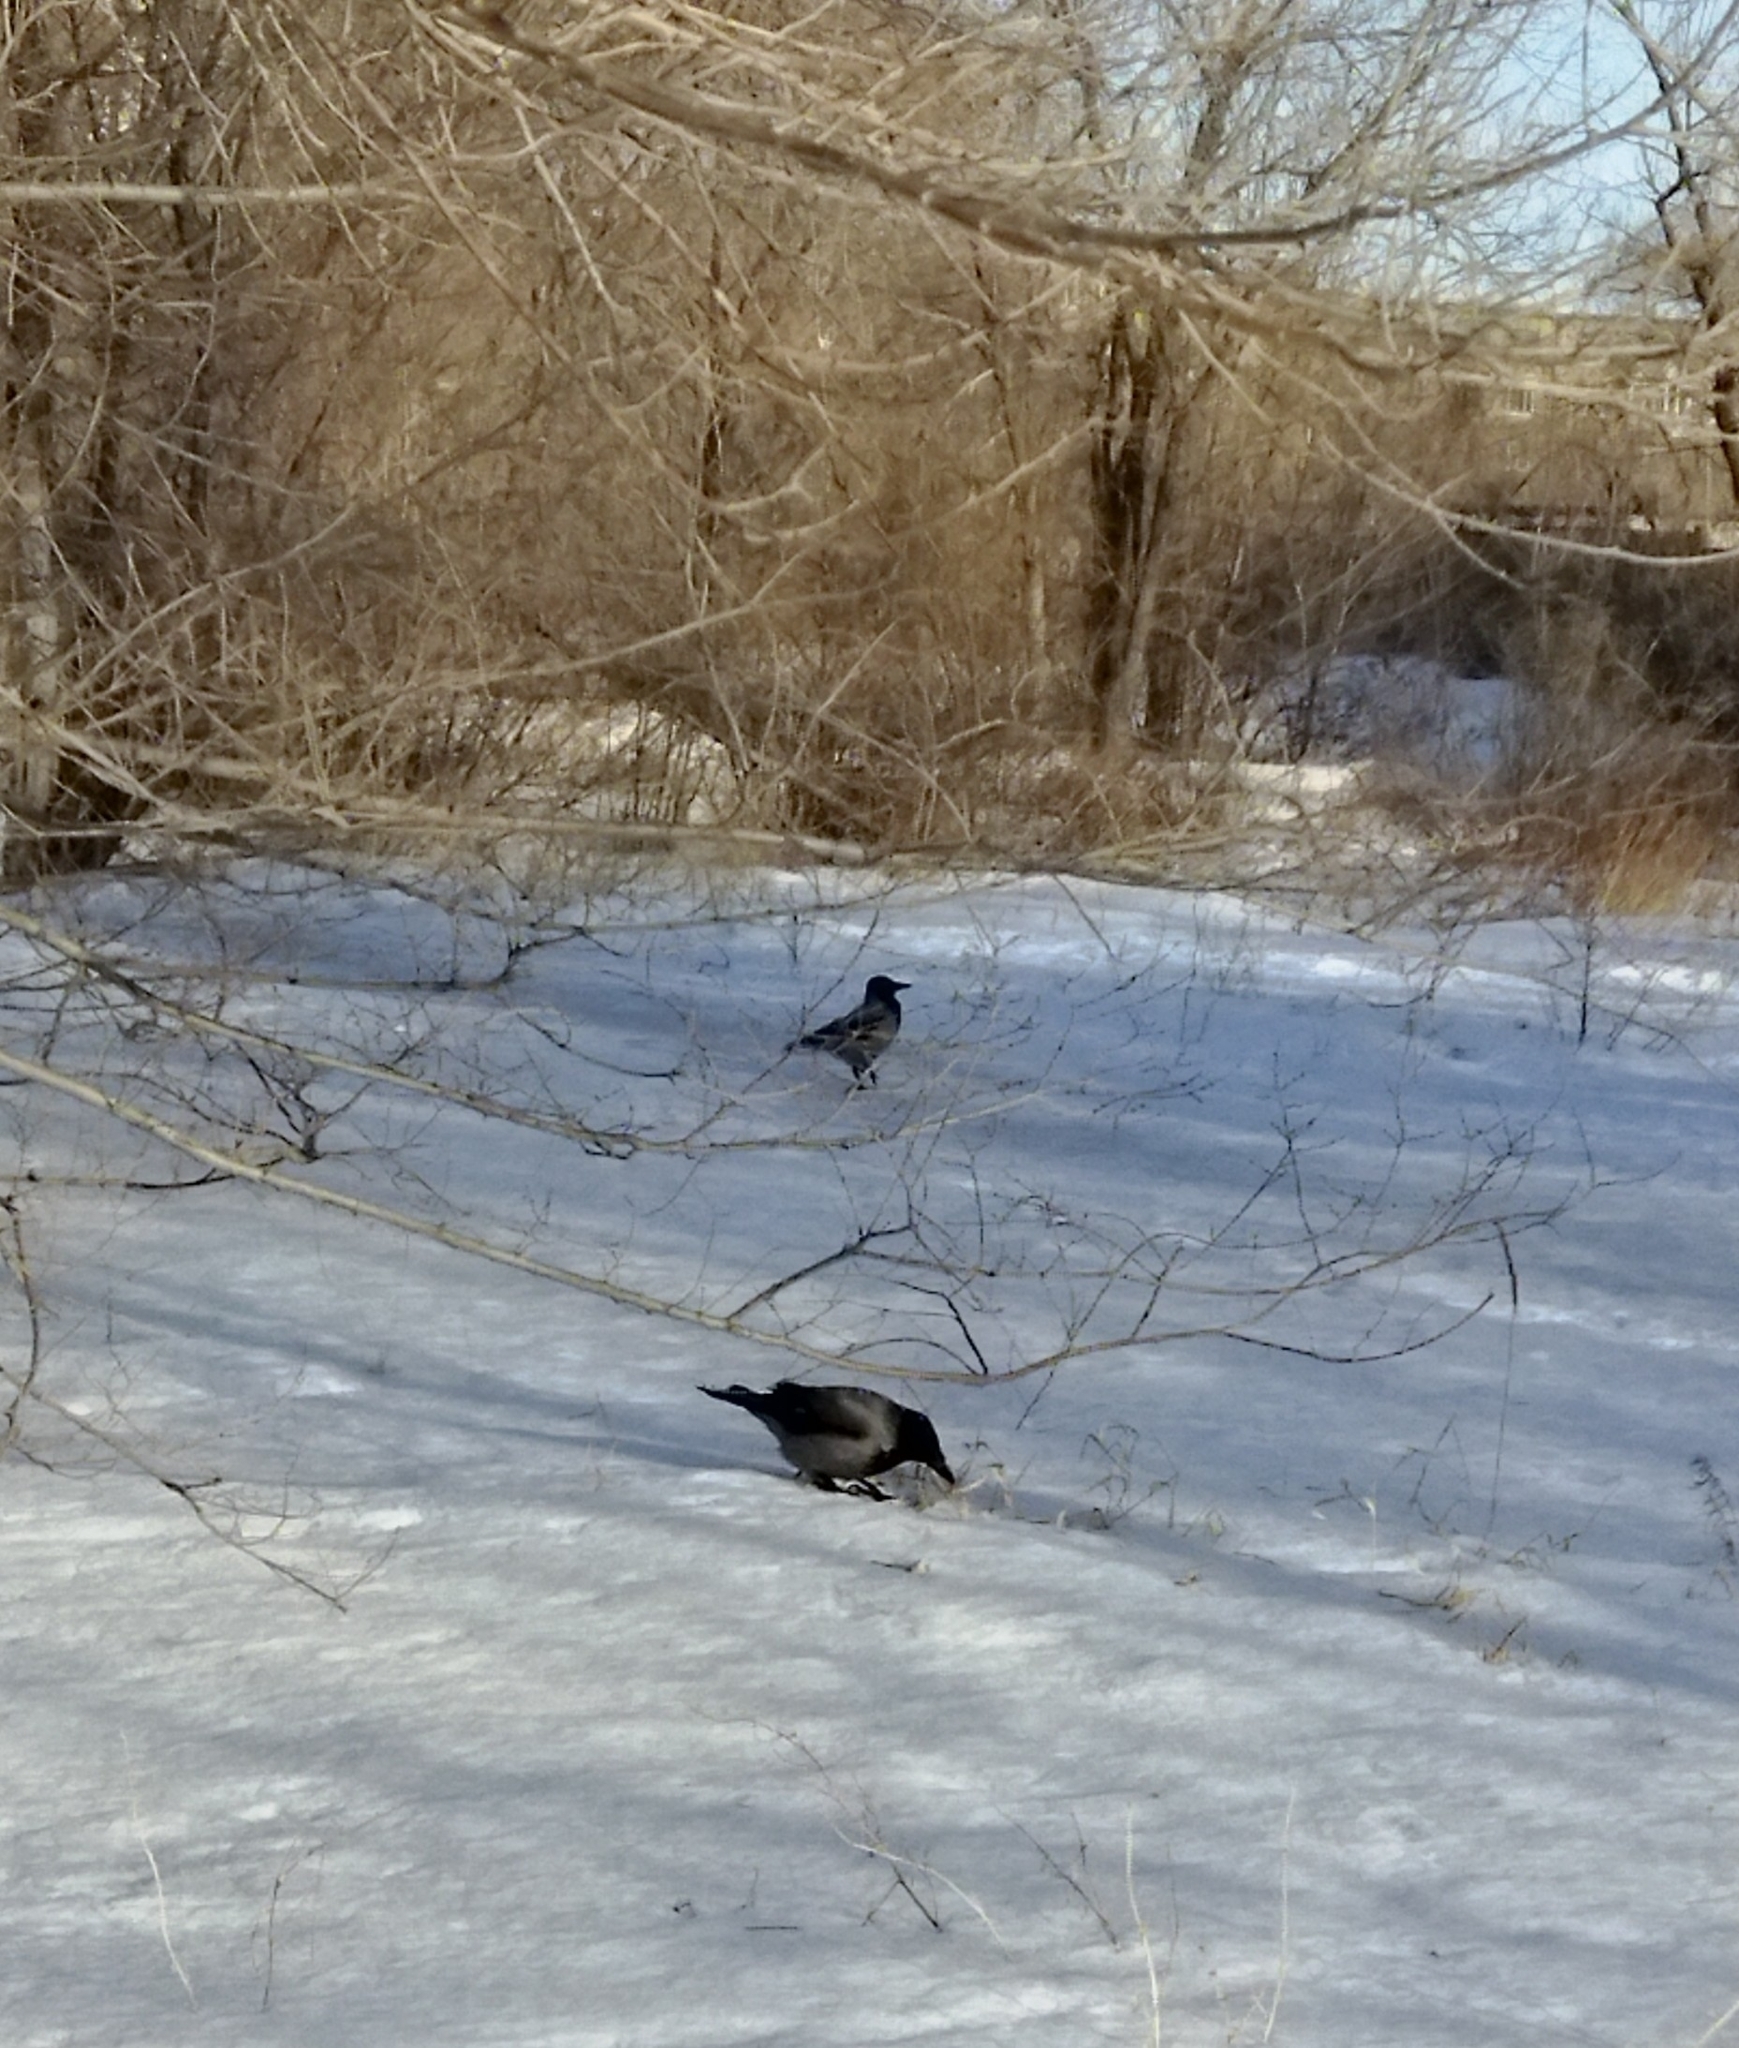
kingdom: Animalia
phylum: Chordata
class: Aves
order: Passeriformes
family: Corvidae
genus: Corvus
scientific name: Corvus cornix
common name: Hooded crow
